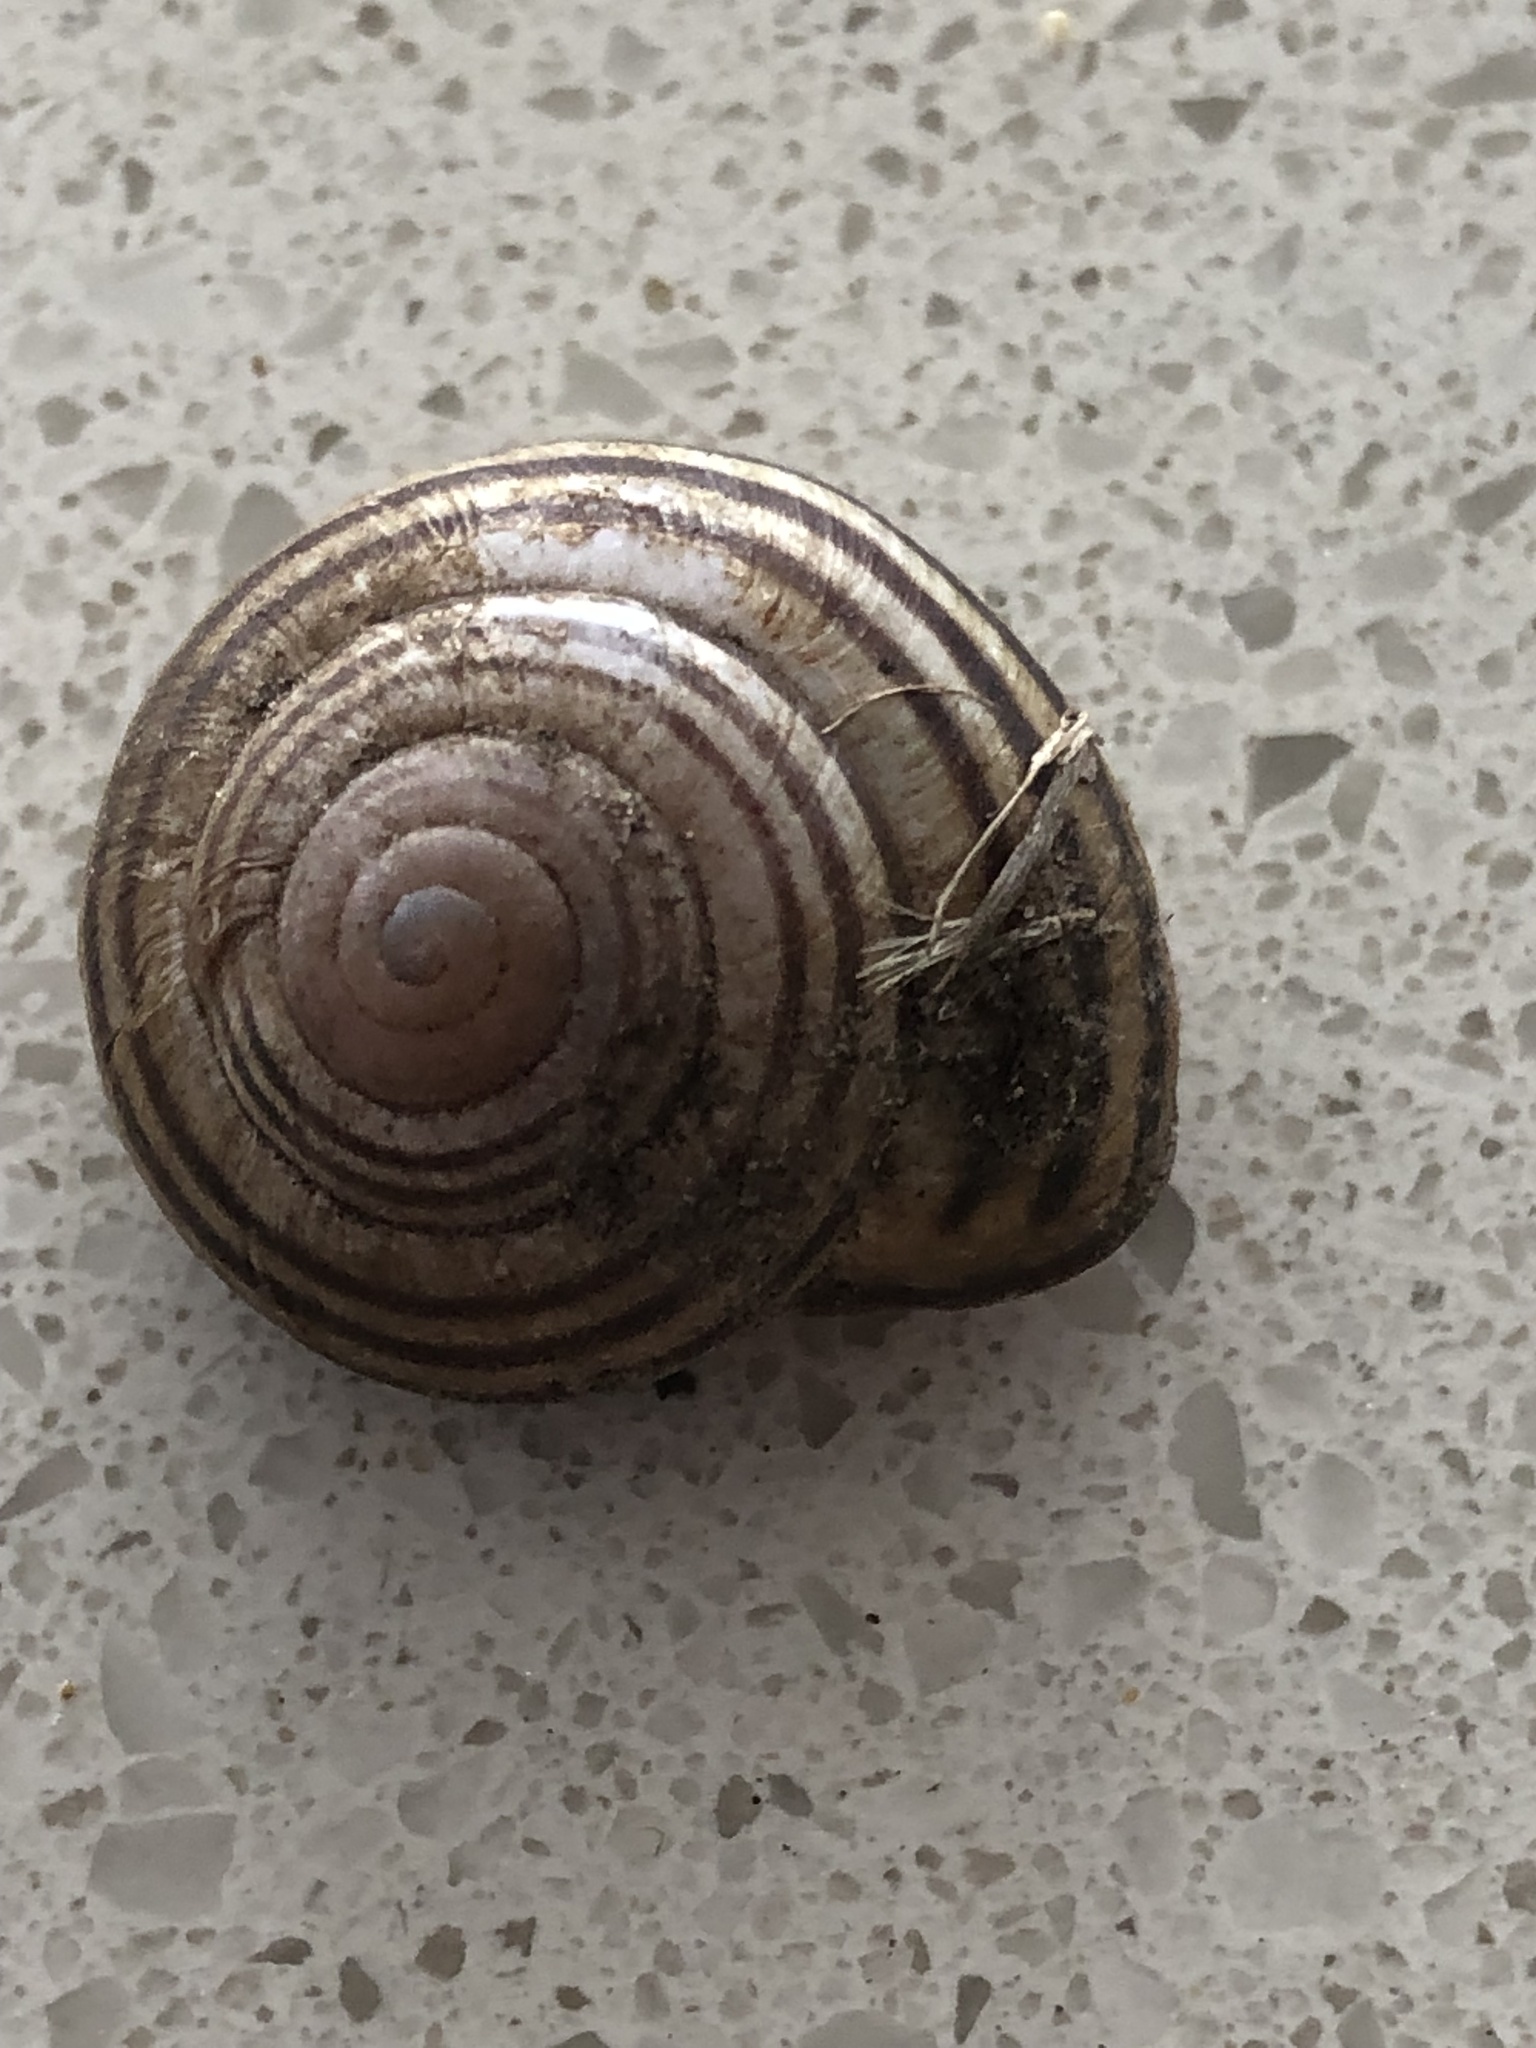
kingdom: Animalia
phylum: Mollusca
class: Gastropoda
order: Stylommatophora
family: Helicidae
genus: Cepaea
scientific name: Cepaea nemoralis
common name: Grovesnail
